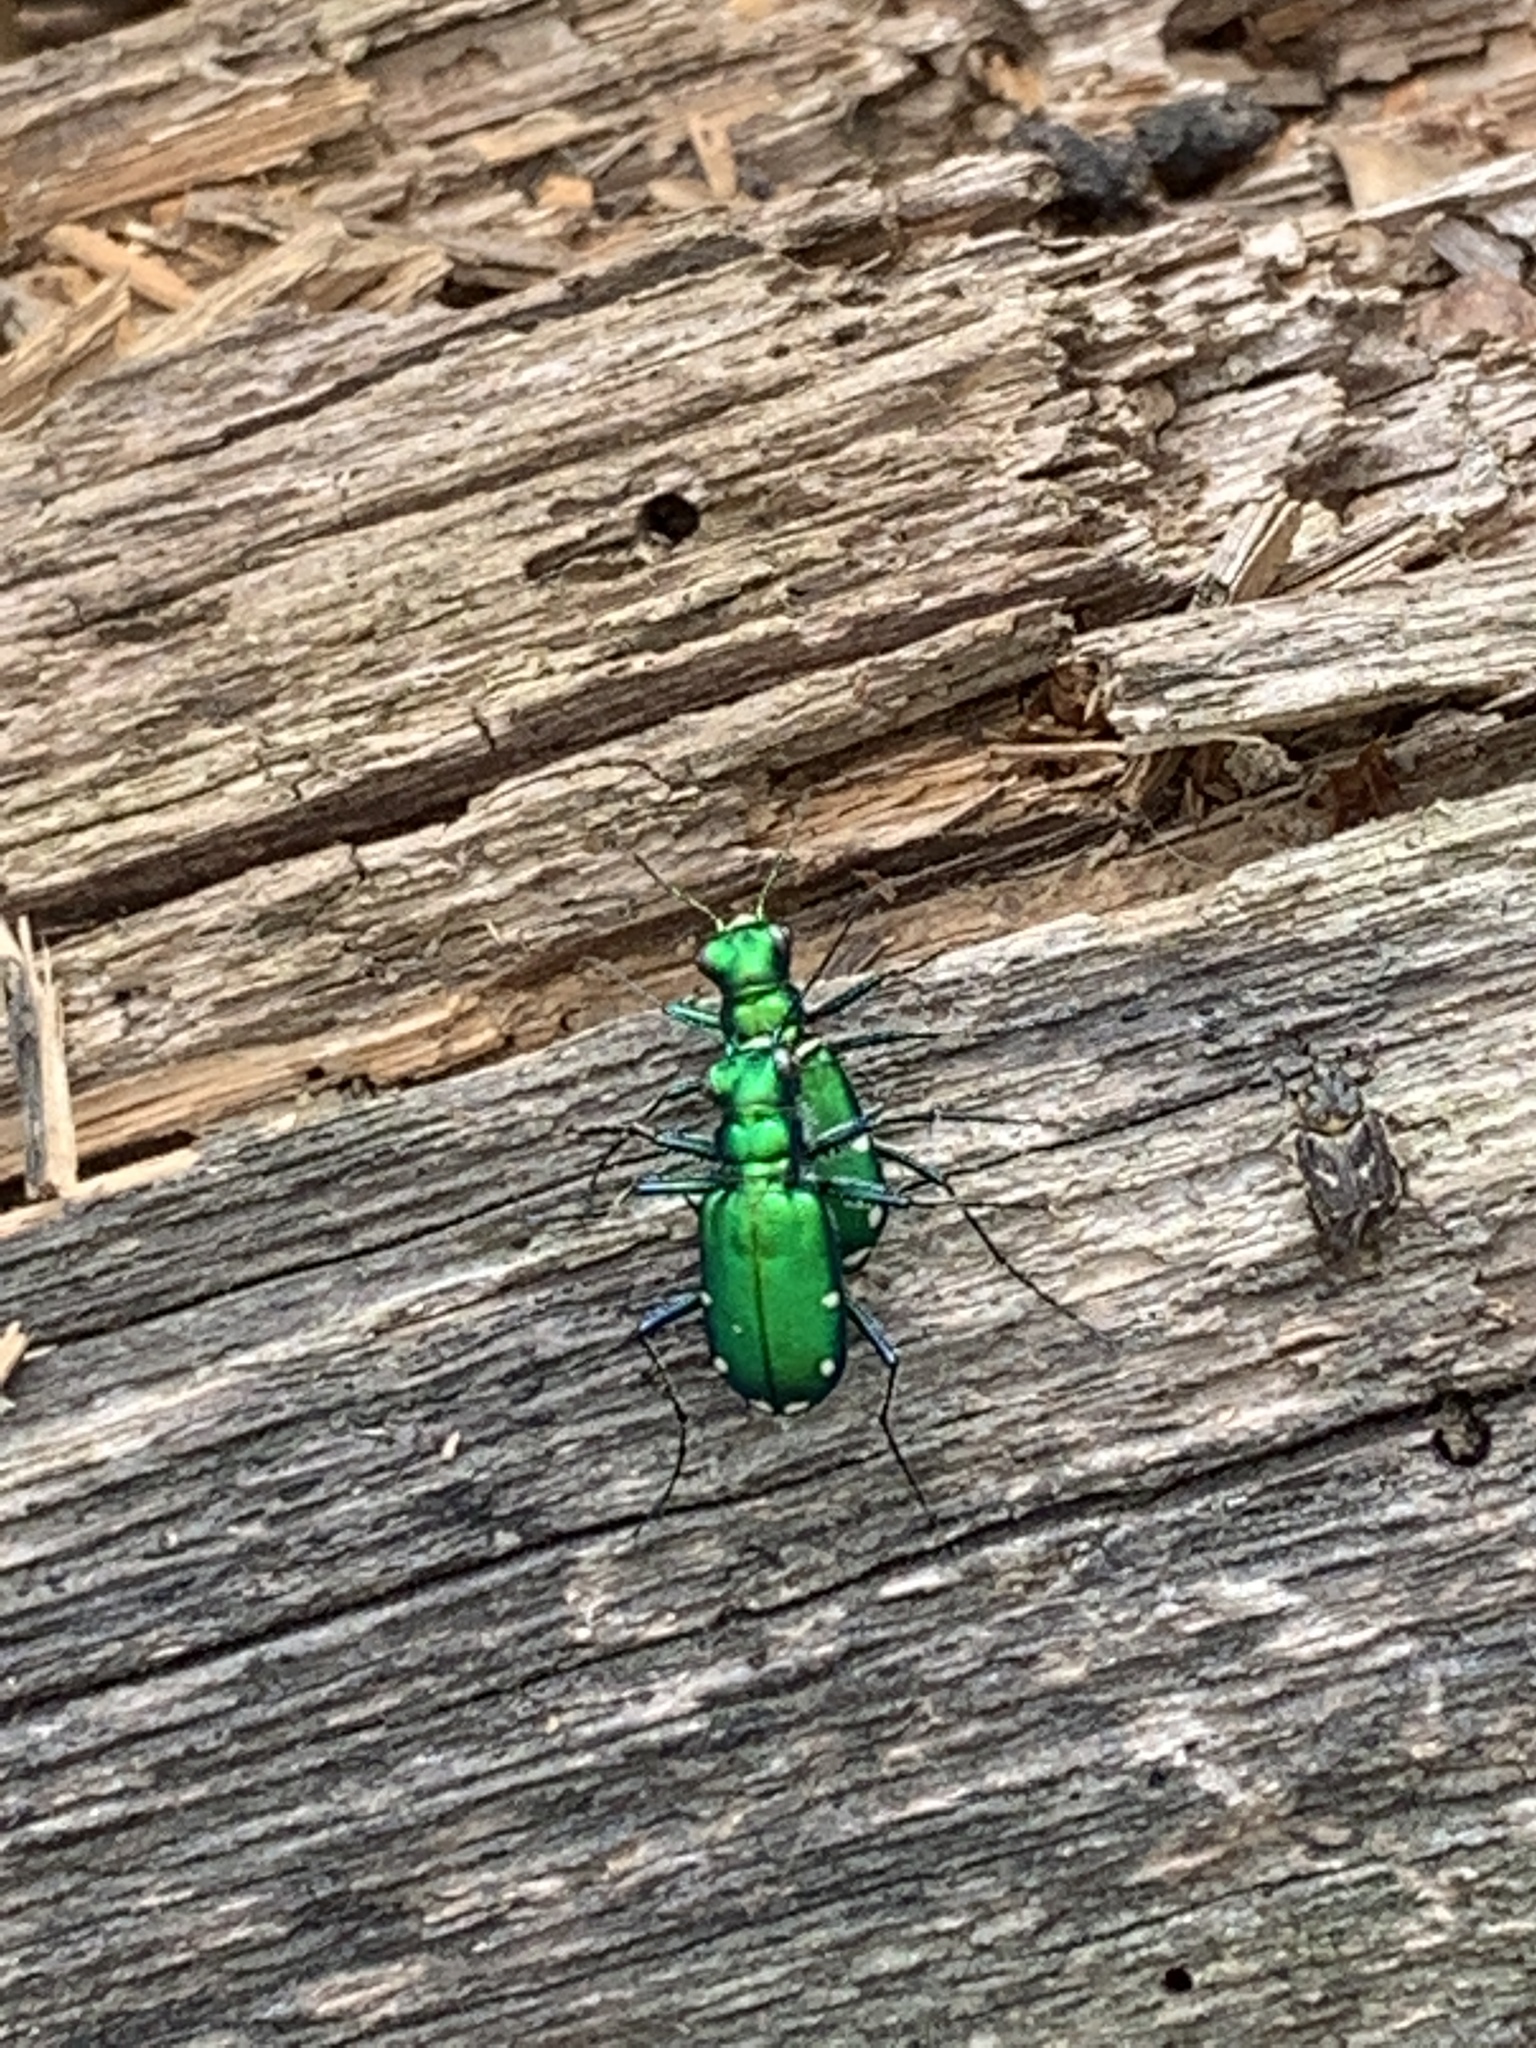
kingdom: Animalia
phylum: Arthropoda
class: Insecta
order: Coleoptera
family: Carabidae
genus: Cicindela
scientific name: Cicindela sexguttata
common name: Six-spotted tiger beetle
